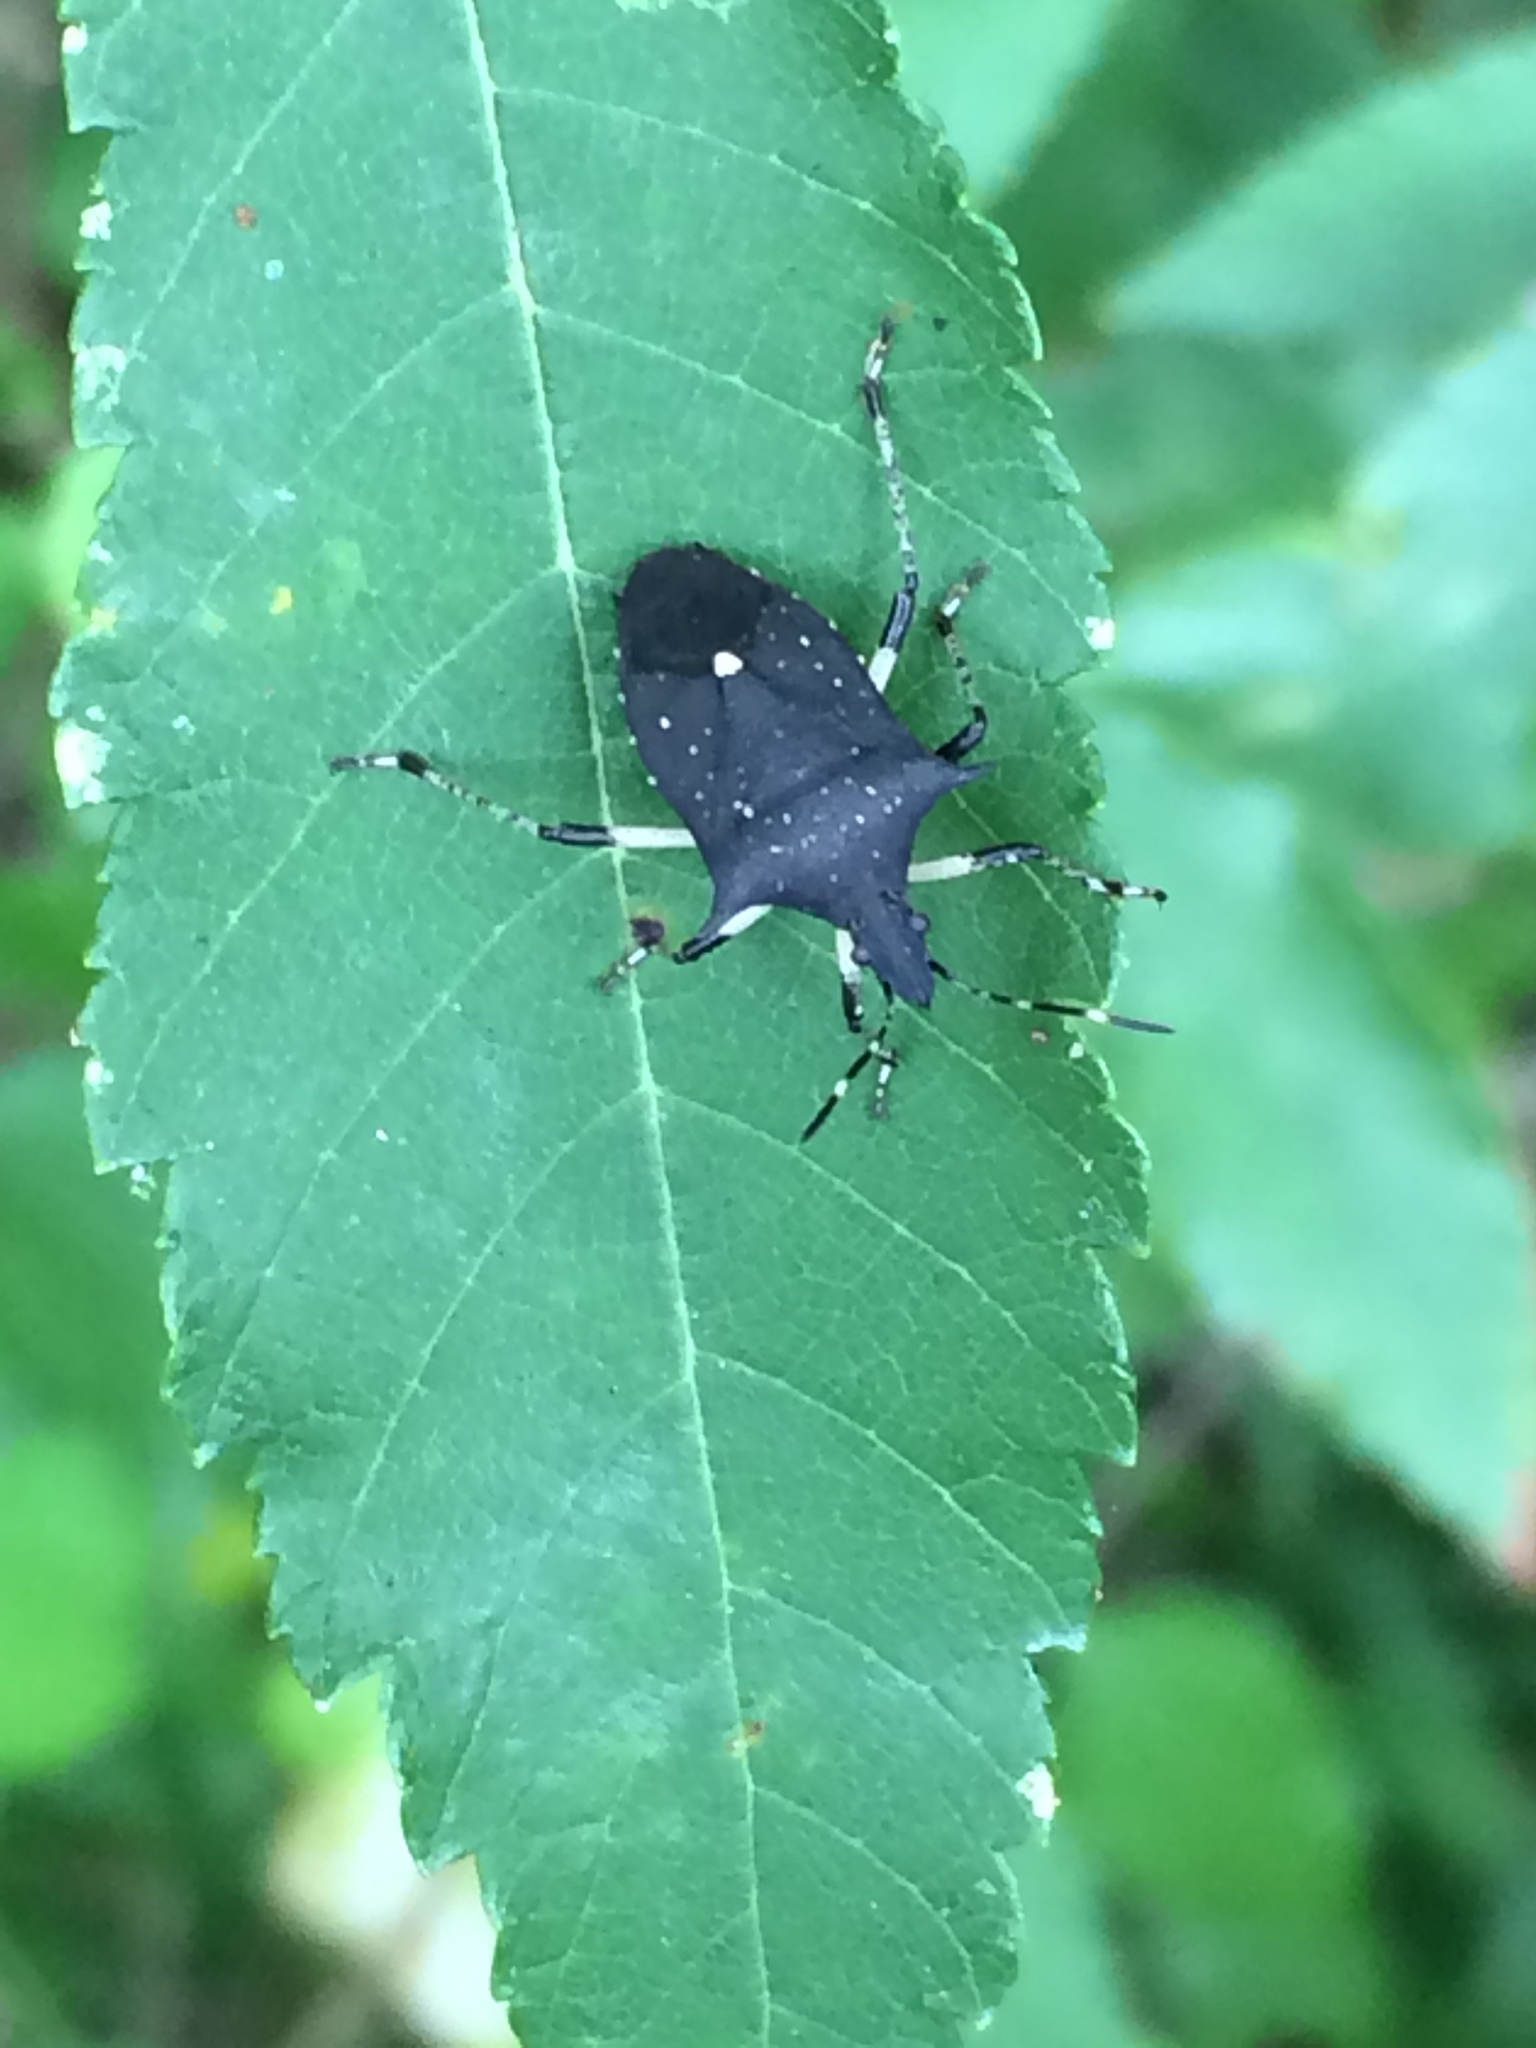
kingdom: Animalia
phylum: Arthropoda
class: Insecta
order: Hemiptera
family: Pentatomidae
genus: Proxys
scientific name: Proxys punctulatus
